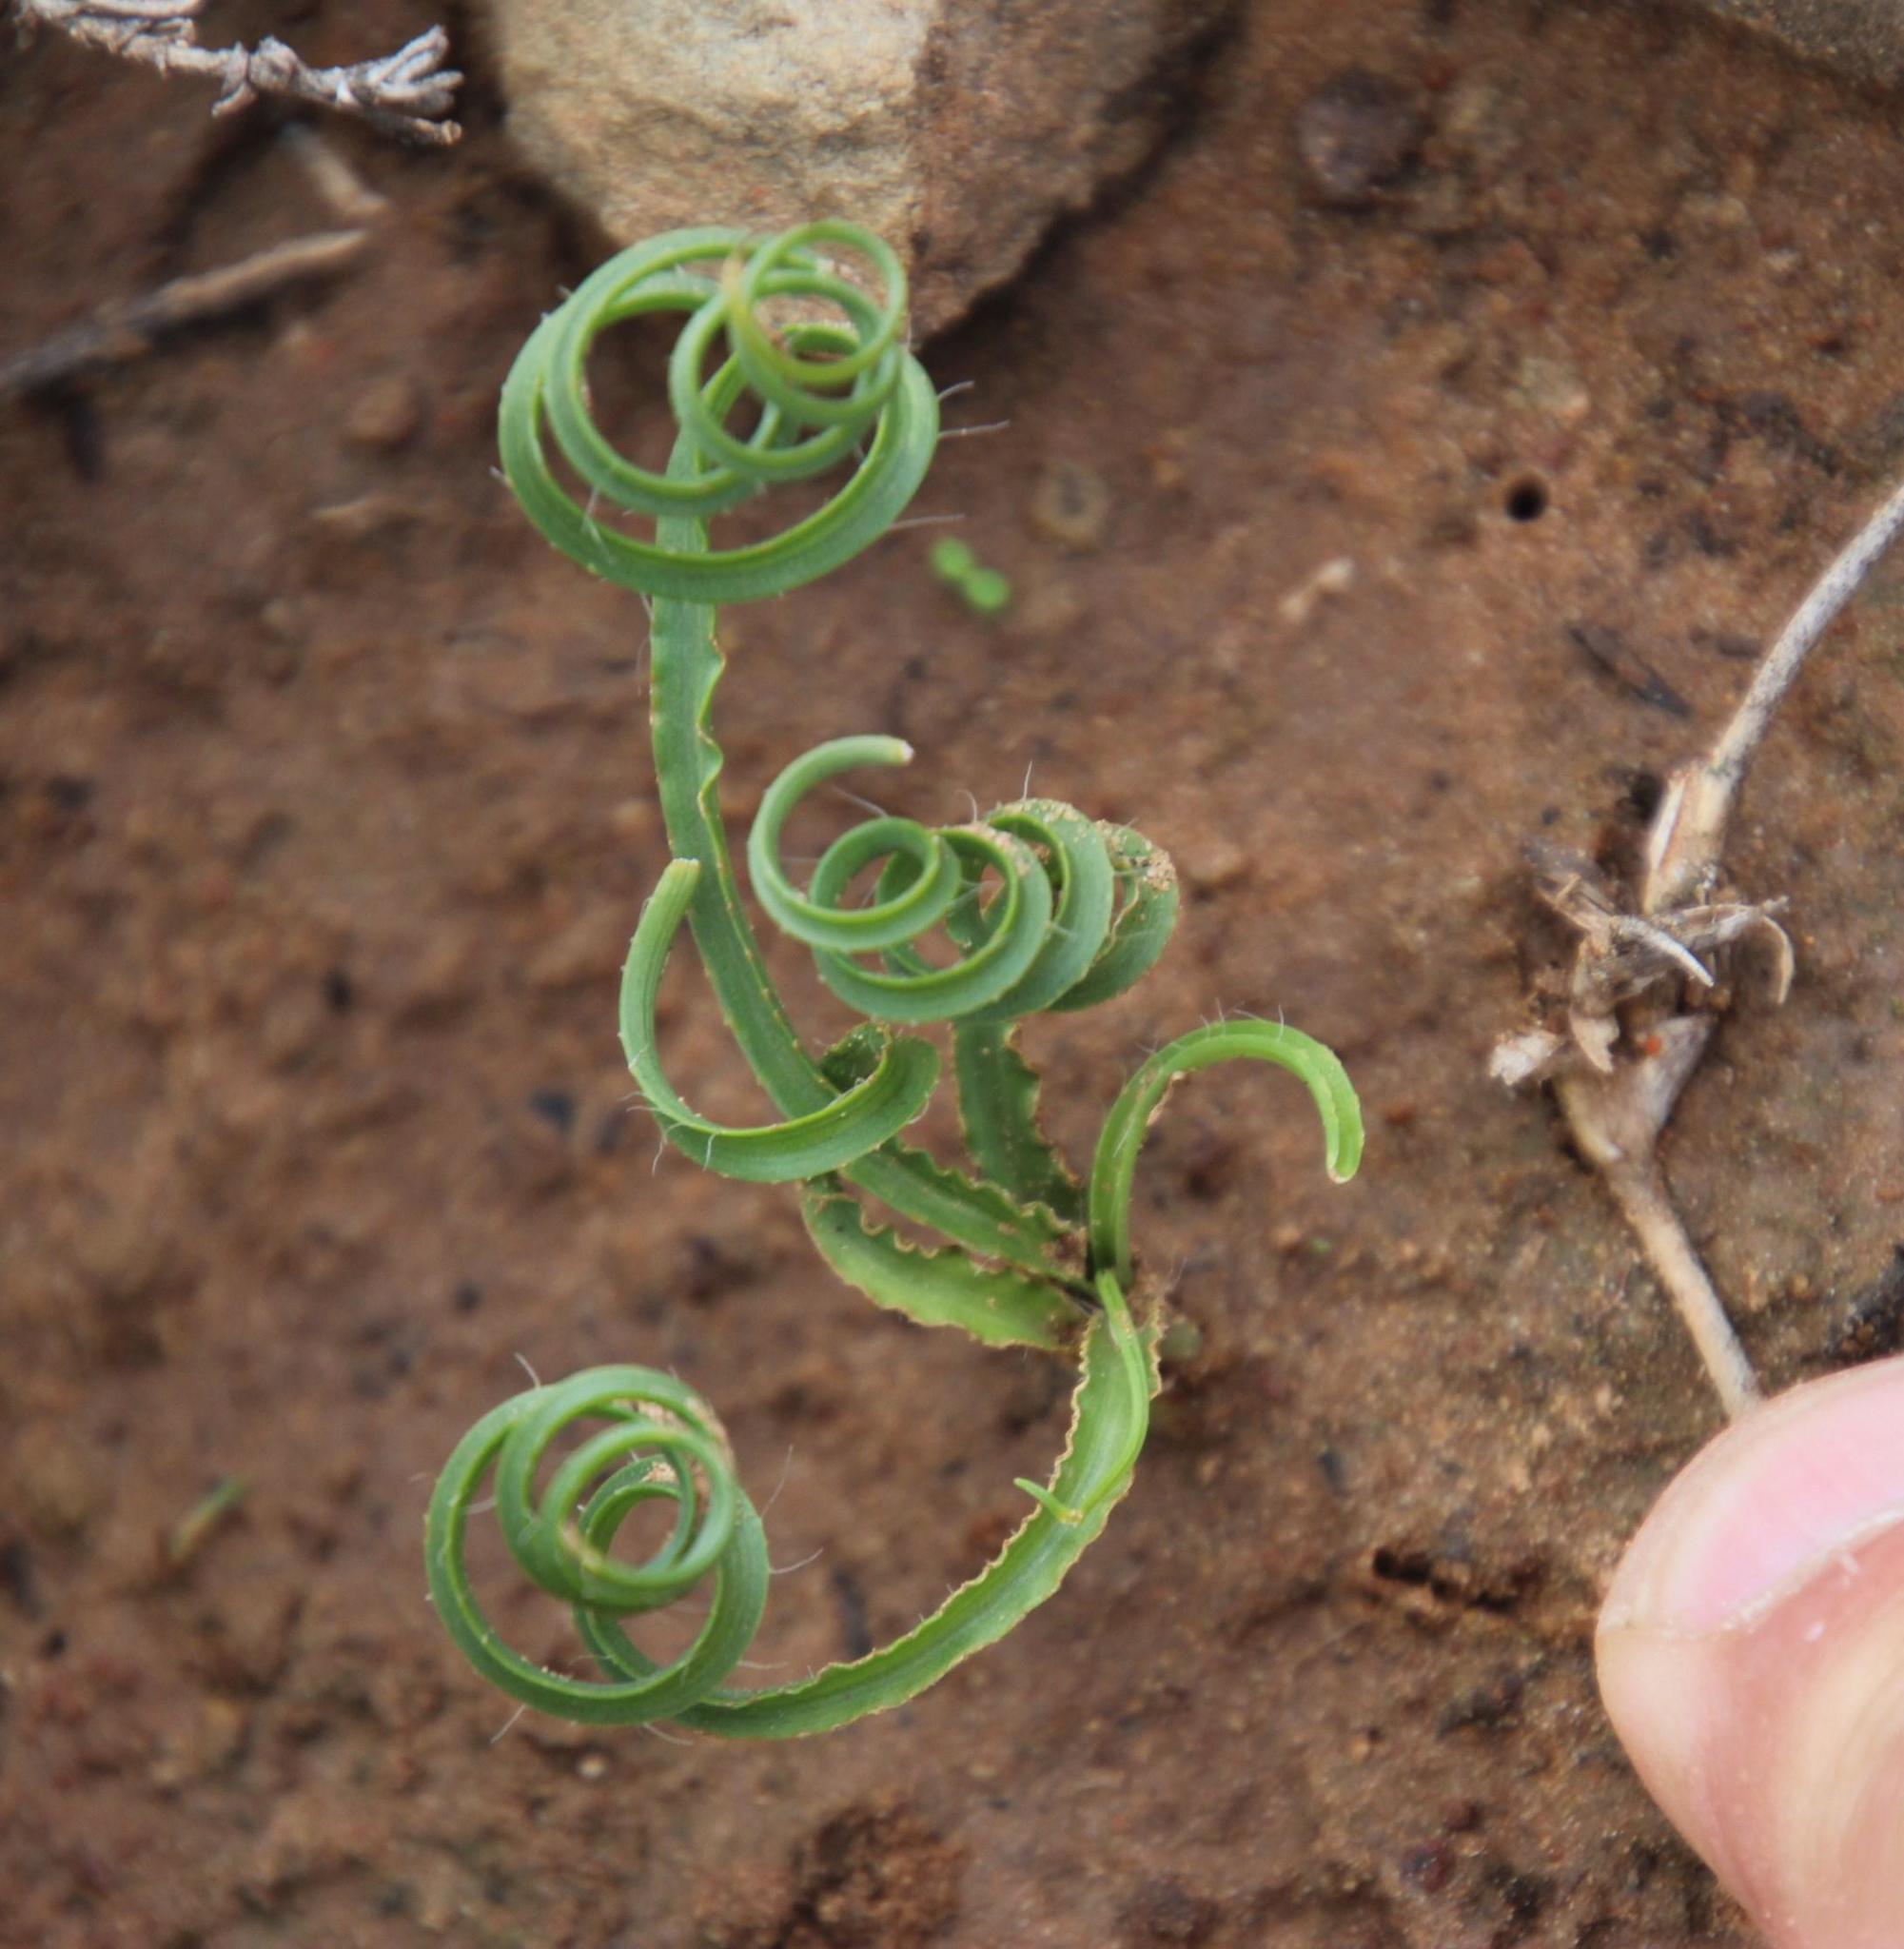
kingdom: Plantae
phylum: Tracheophyta
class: Liliopsida
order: Asparagales
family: Asparagaceae
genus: Dipcadi
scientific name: Dipcadi crispum
